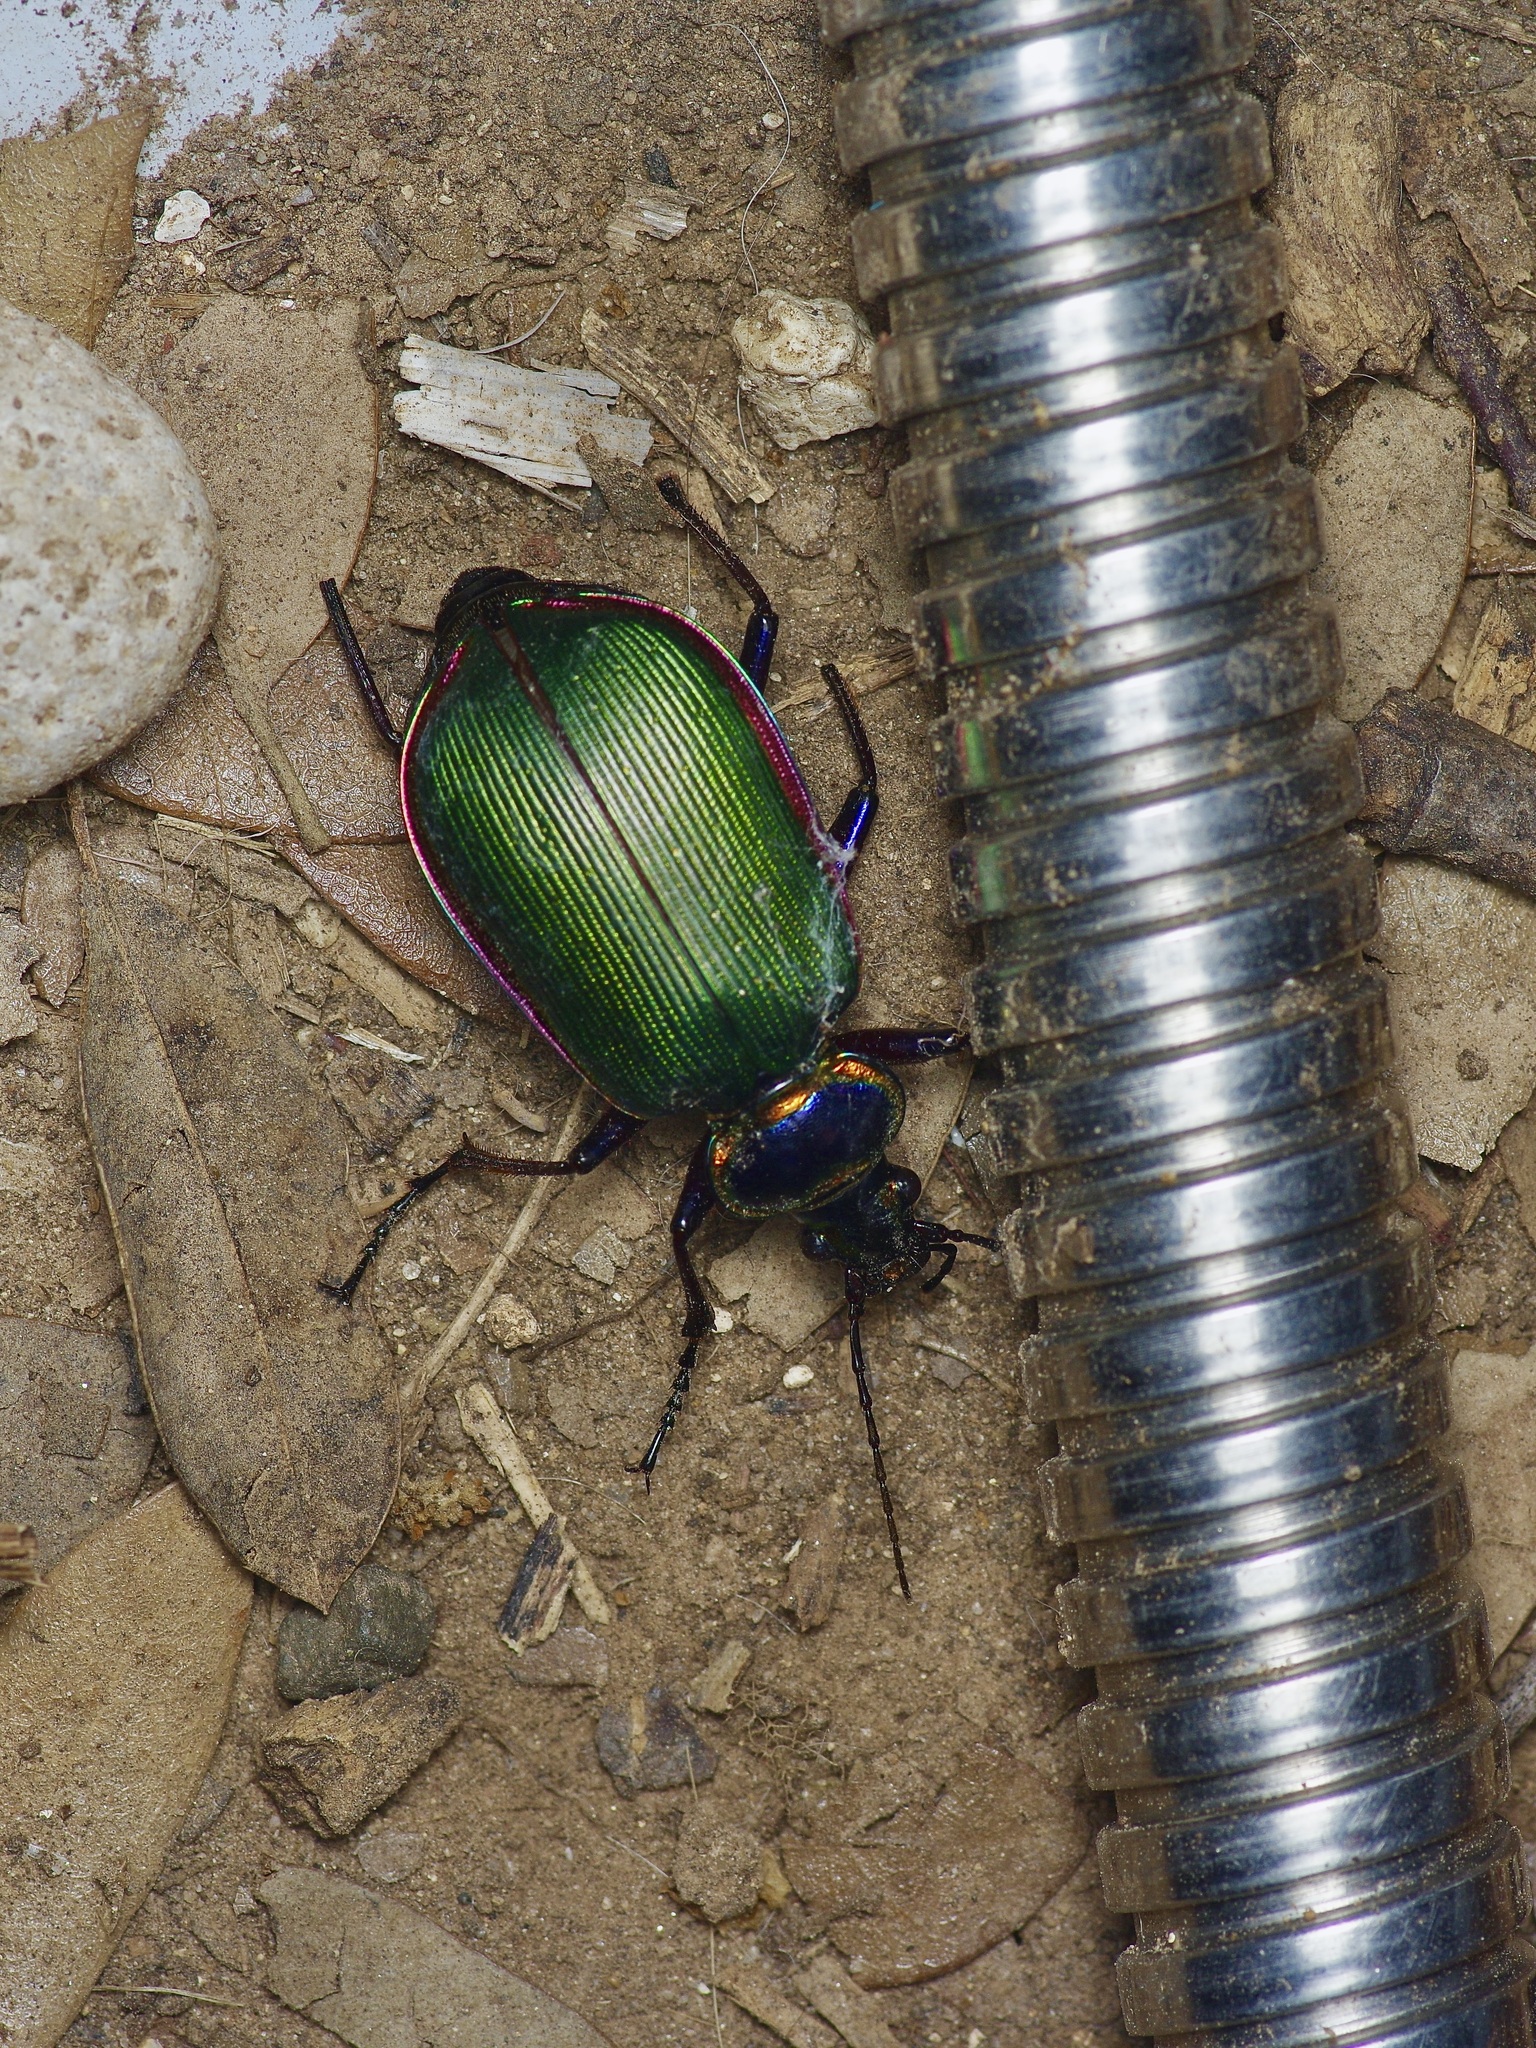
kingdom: Animalia
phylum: Arthropoda
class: Insecta
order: Coleoptera
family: Carabidae
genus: Calosoma
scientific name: Calosoma scrutator
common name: Fiery searcher beetle
